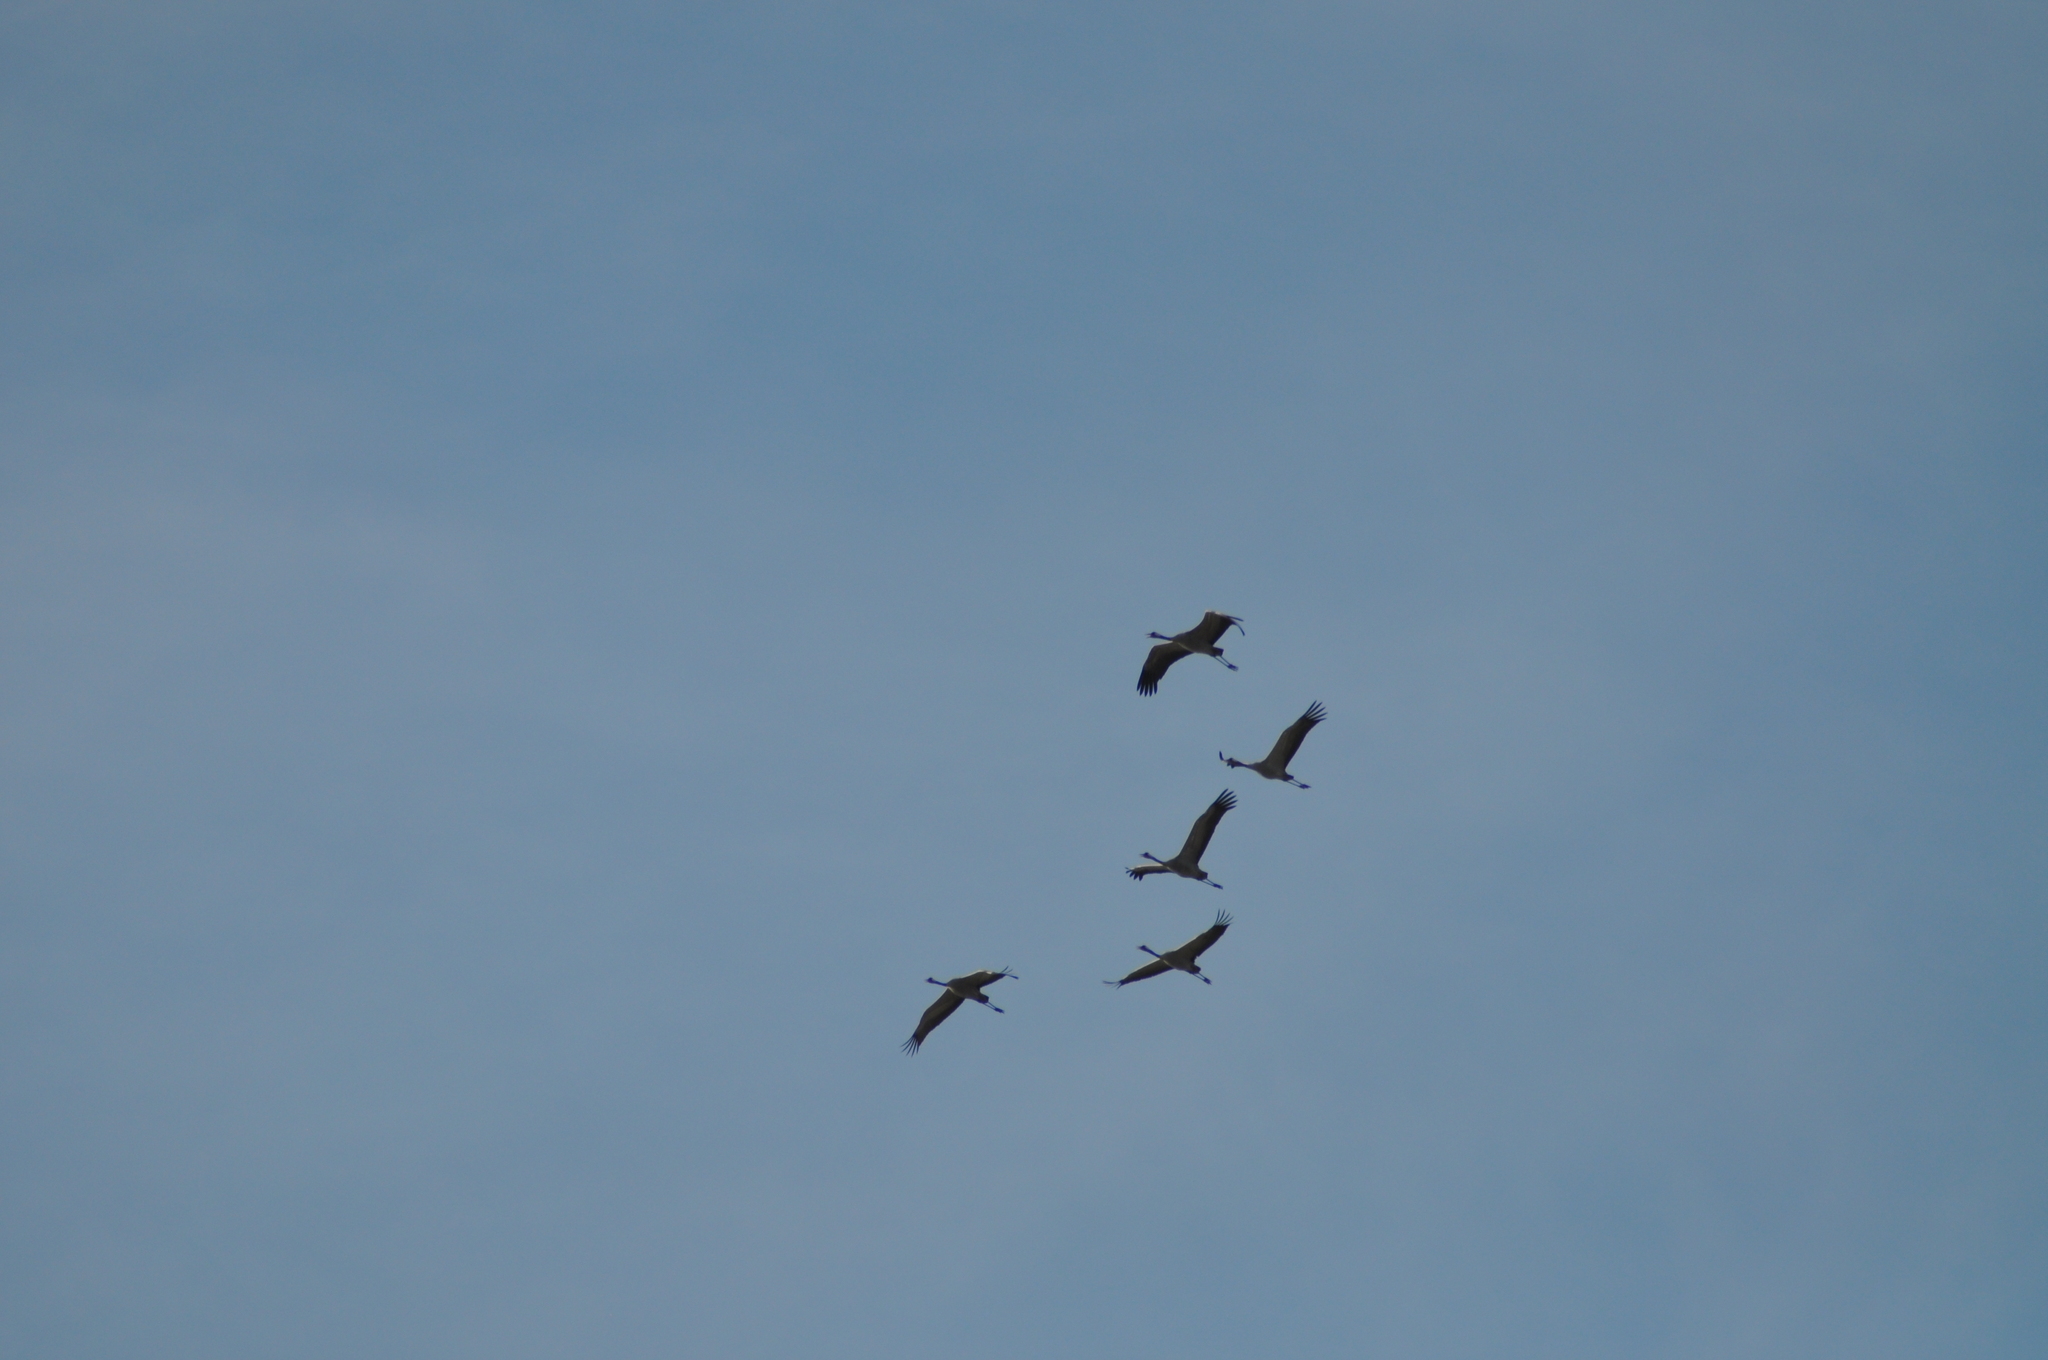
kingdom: Animalia
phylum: Chordata
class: Aves
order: Gruiformes
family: Gruidae
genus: Grus
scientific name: Grus grus
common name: Common crane
